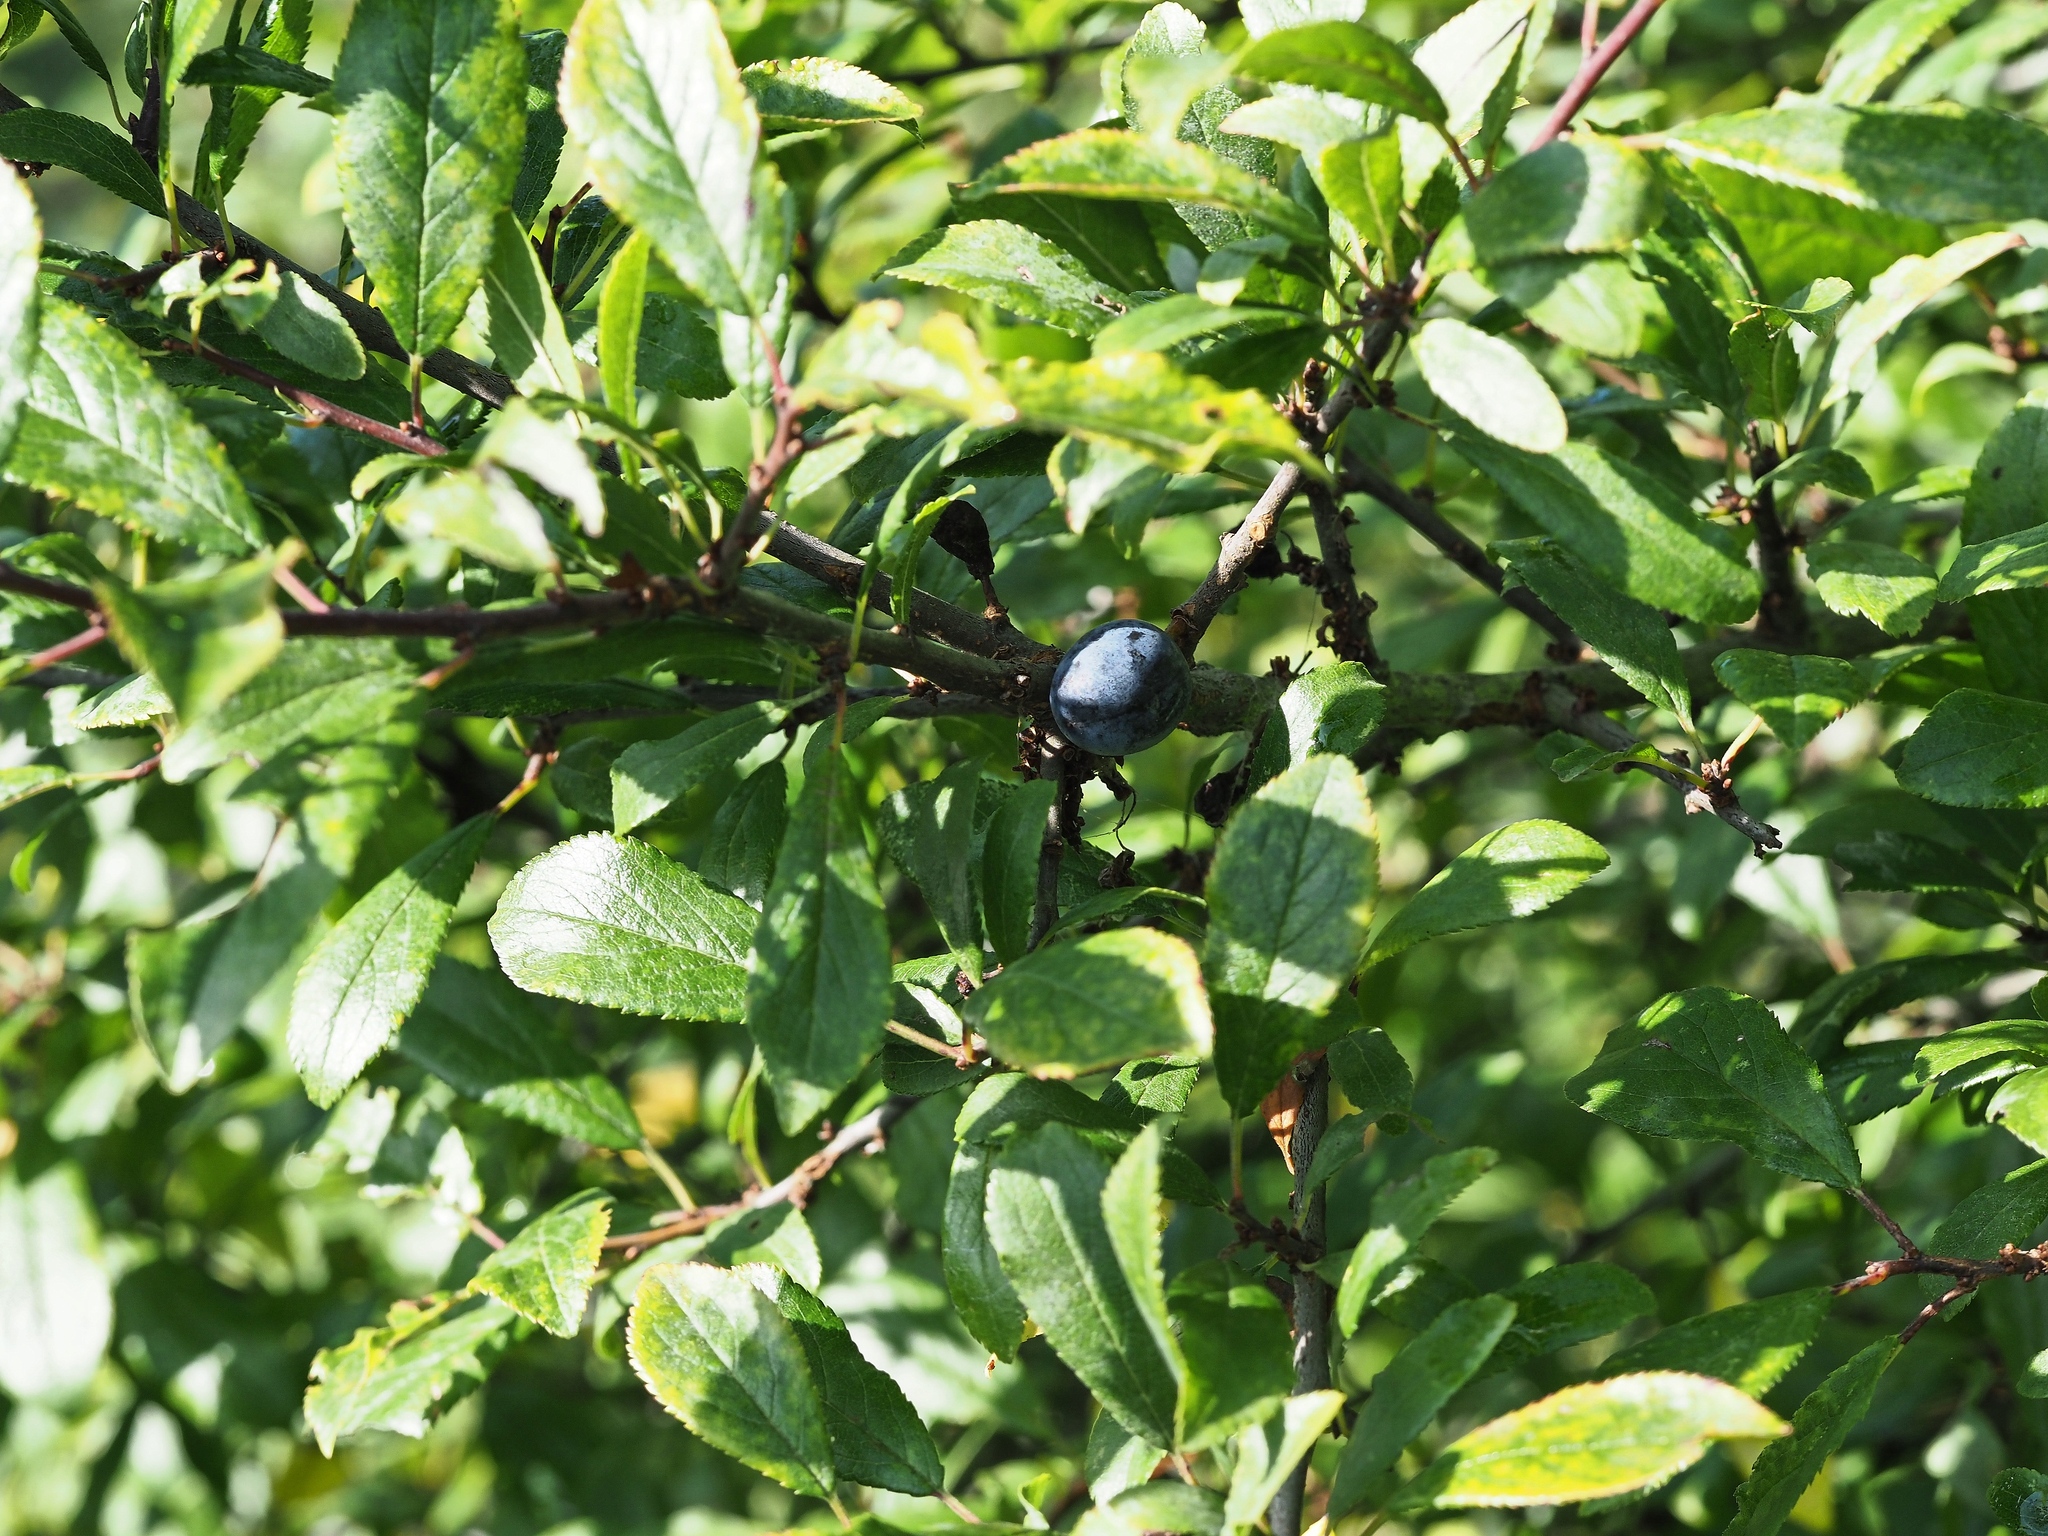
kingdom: Plantae
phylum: Tracheophyta
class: Magnoliopsida
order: Rosales
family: Rosaceae
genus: Prunus
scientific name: Prunus spinosa
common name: Blackthorn
